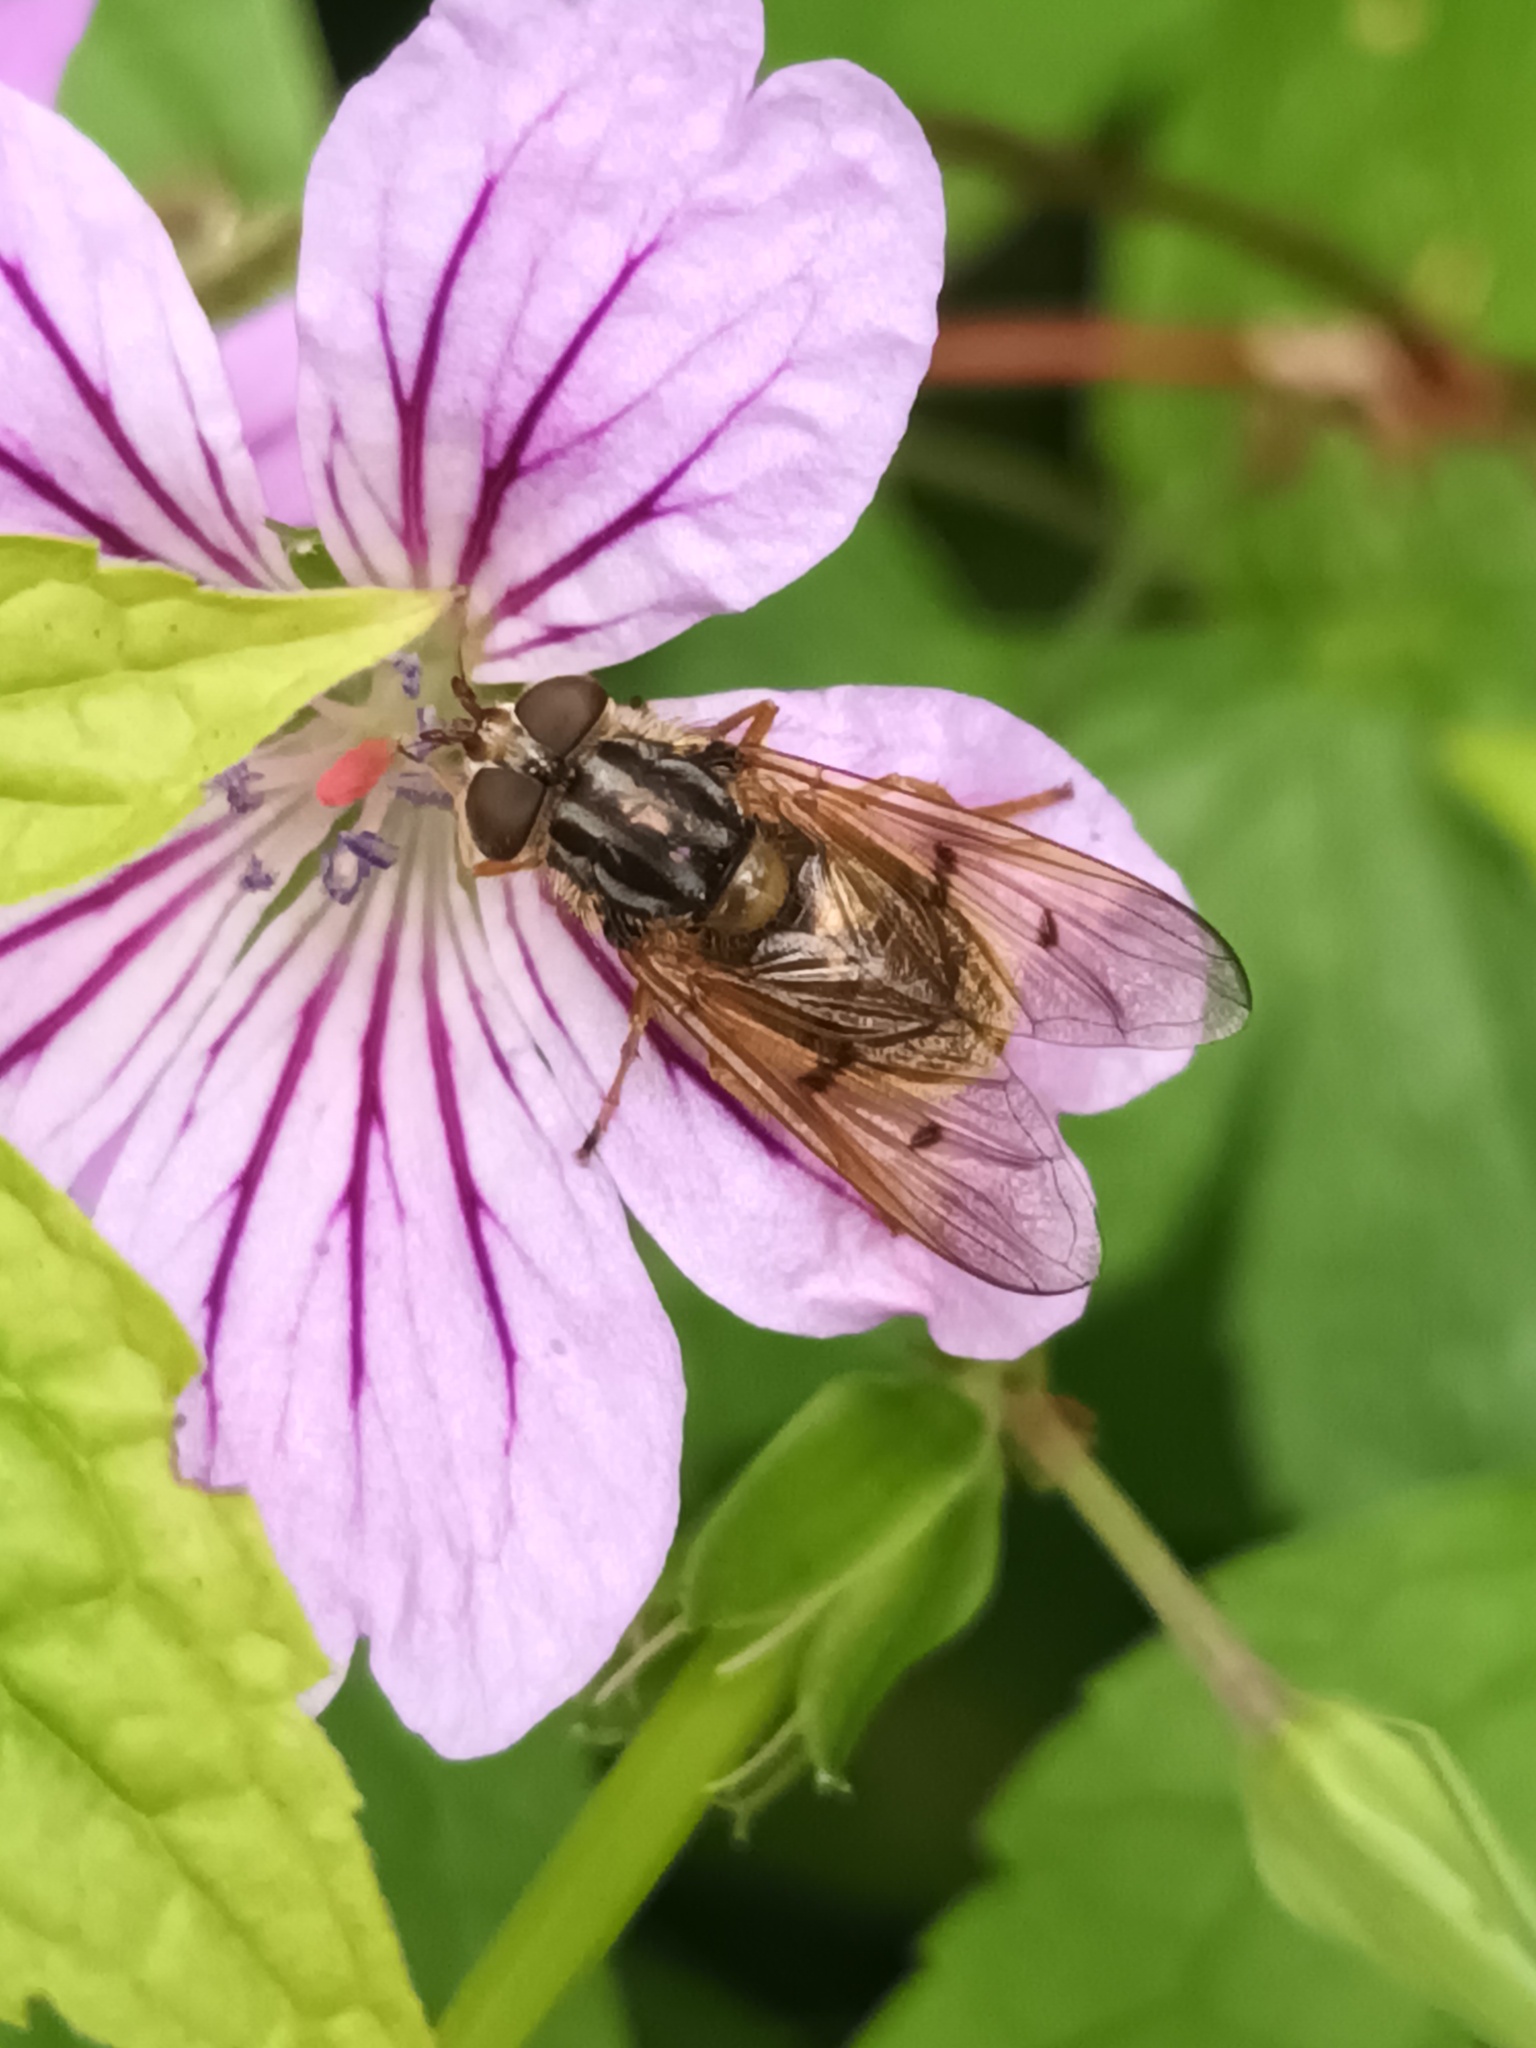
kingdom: Animalia
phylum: Arthropoda
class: Insecta
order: Diptera
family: Syrphidae
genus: Ferdinandea
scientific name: Ferdinandea cuprea
